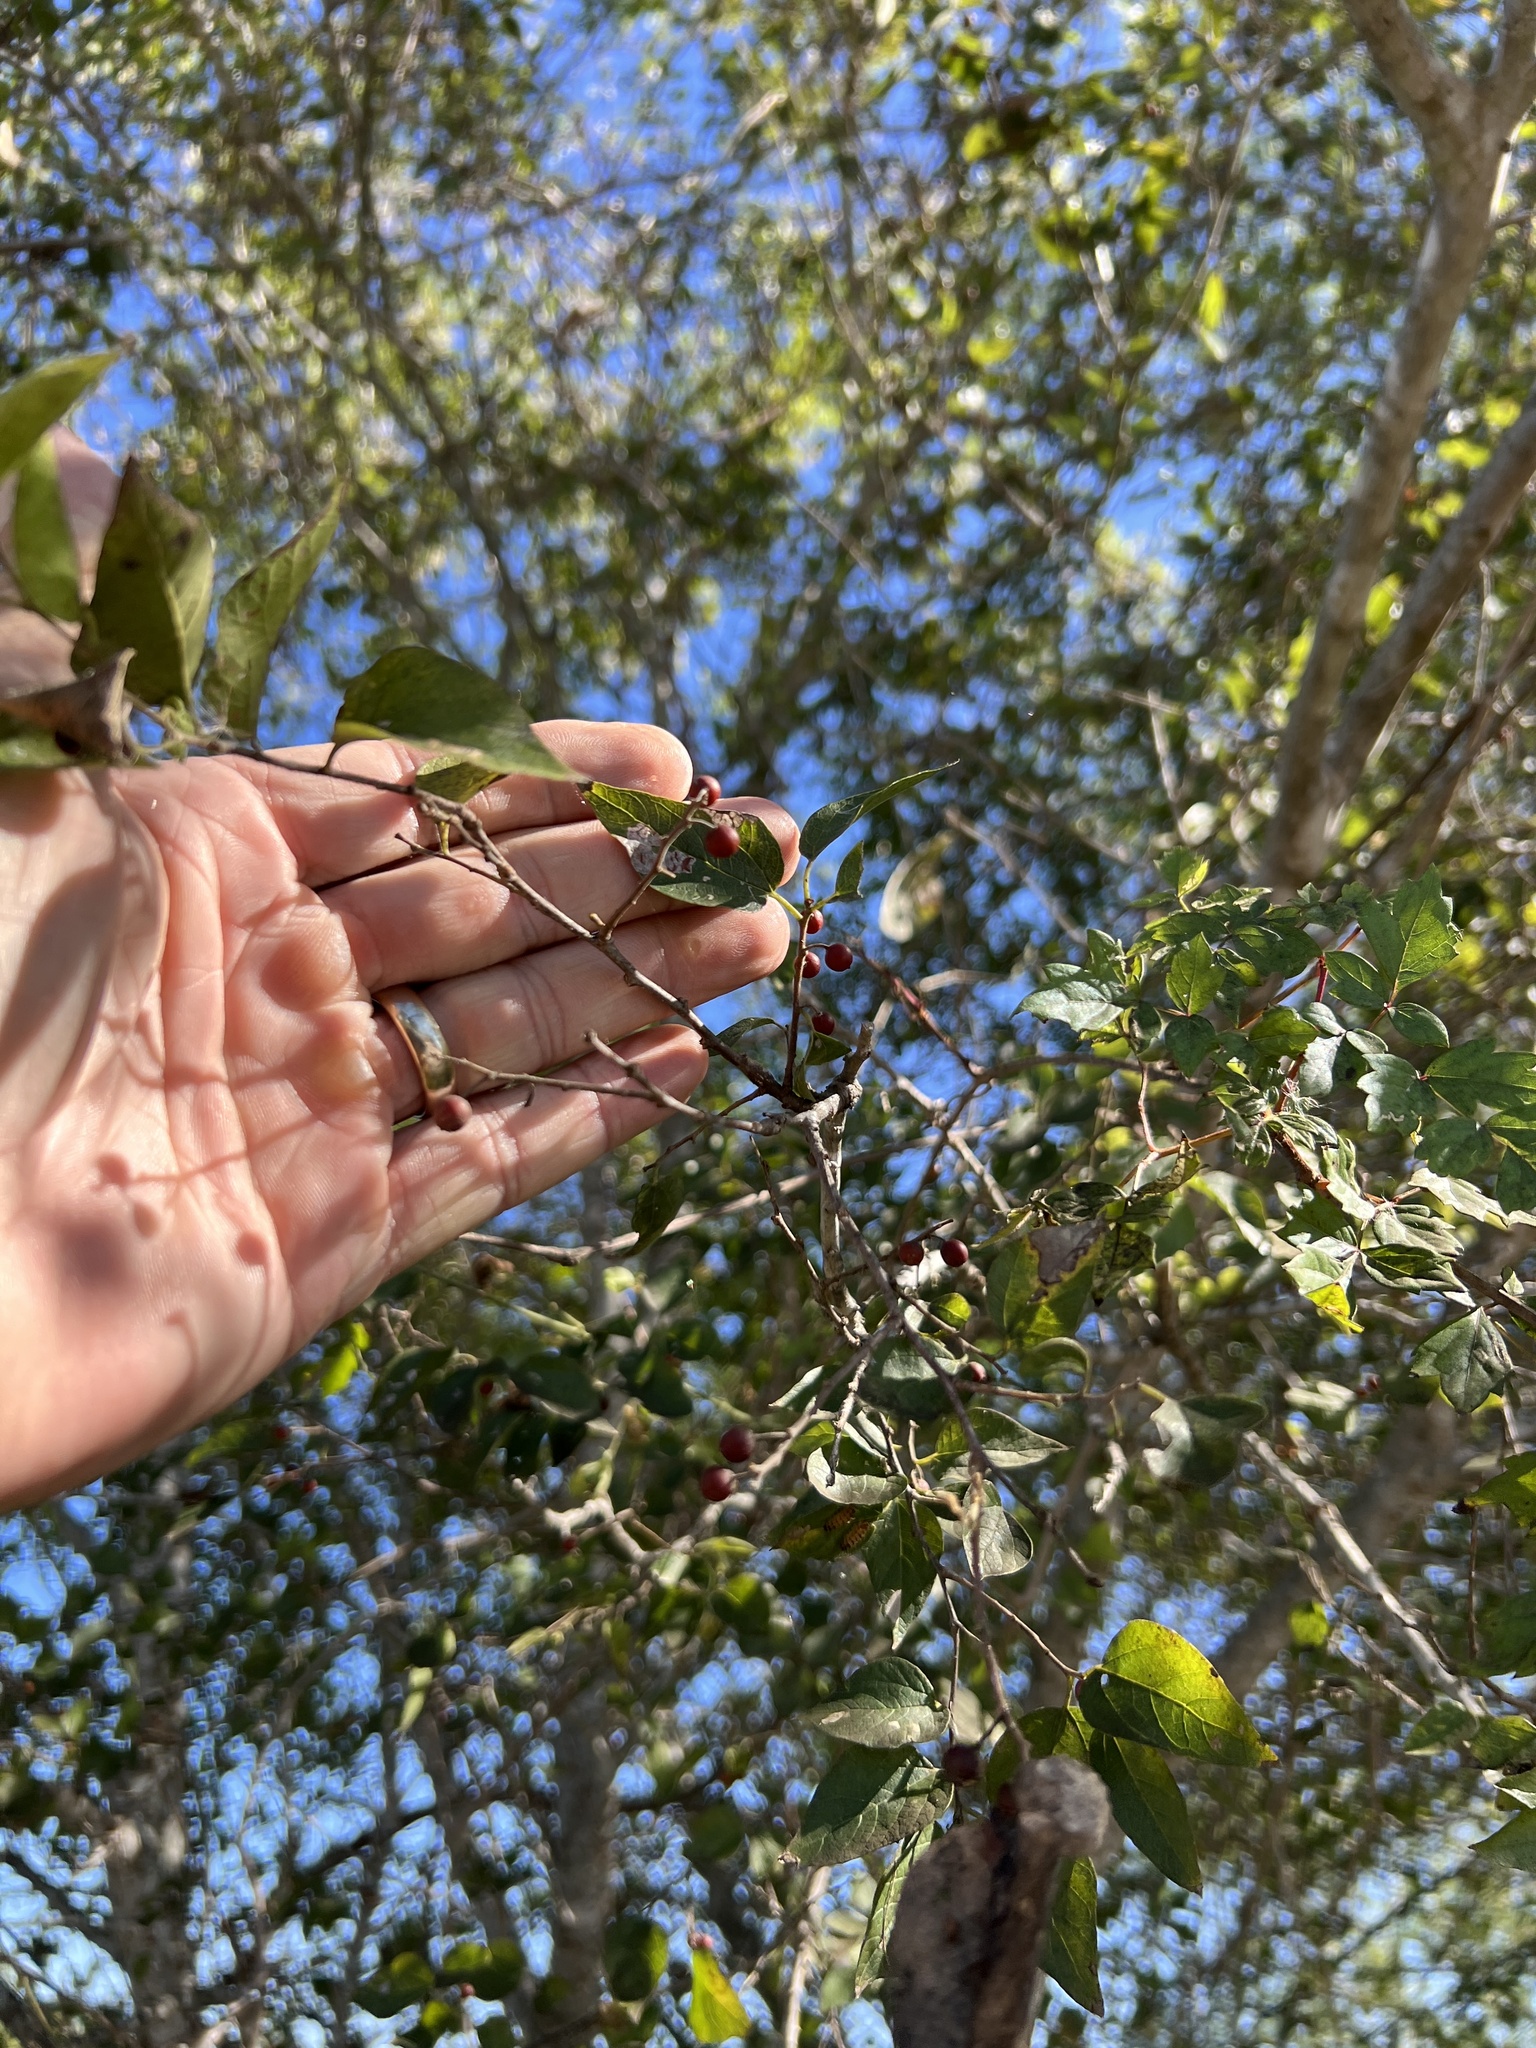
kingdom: Plantae
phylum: Tracheophyta
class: Magnoliopsida
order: Rosales
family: Cannabaceae
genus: Celtis
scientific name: Celtis reticulata
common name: Netleaf hackberry
